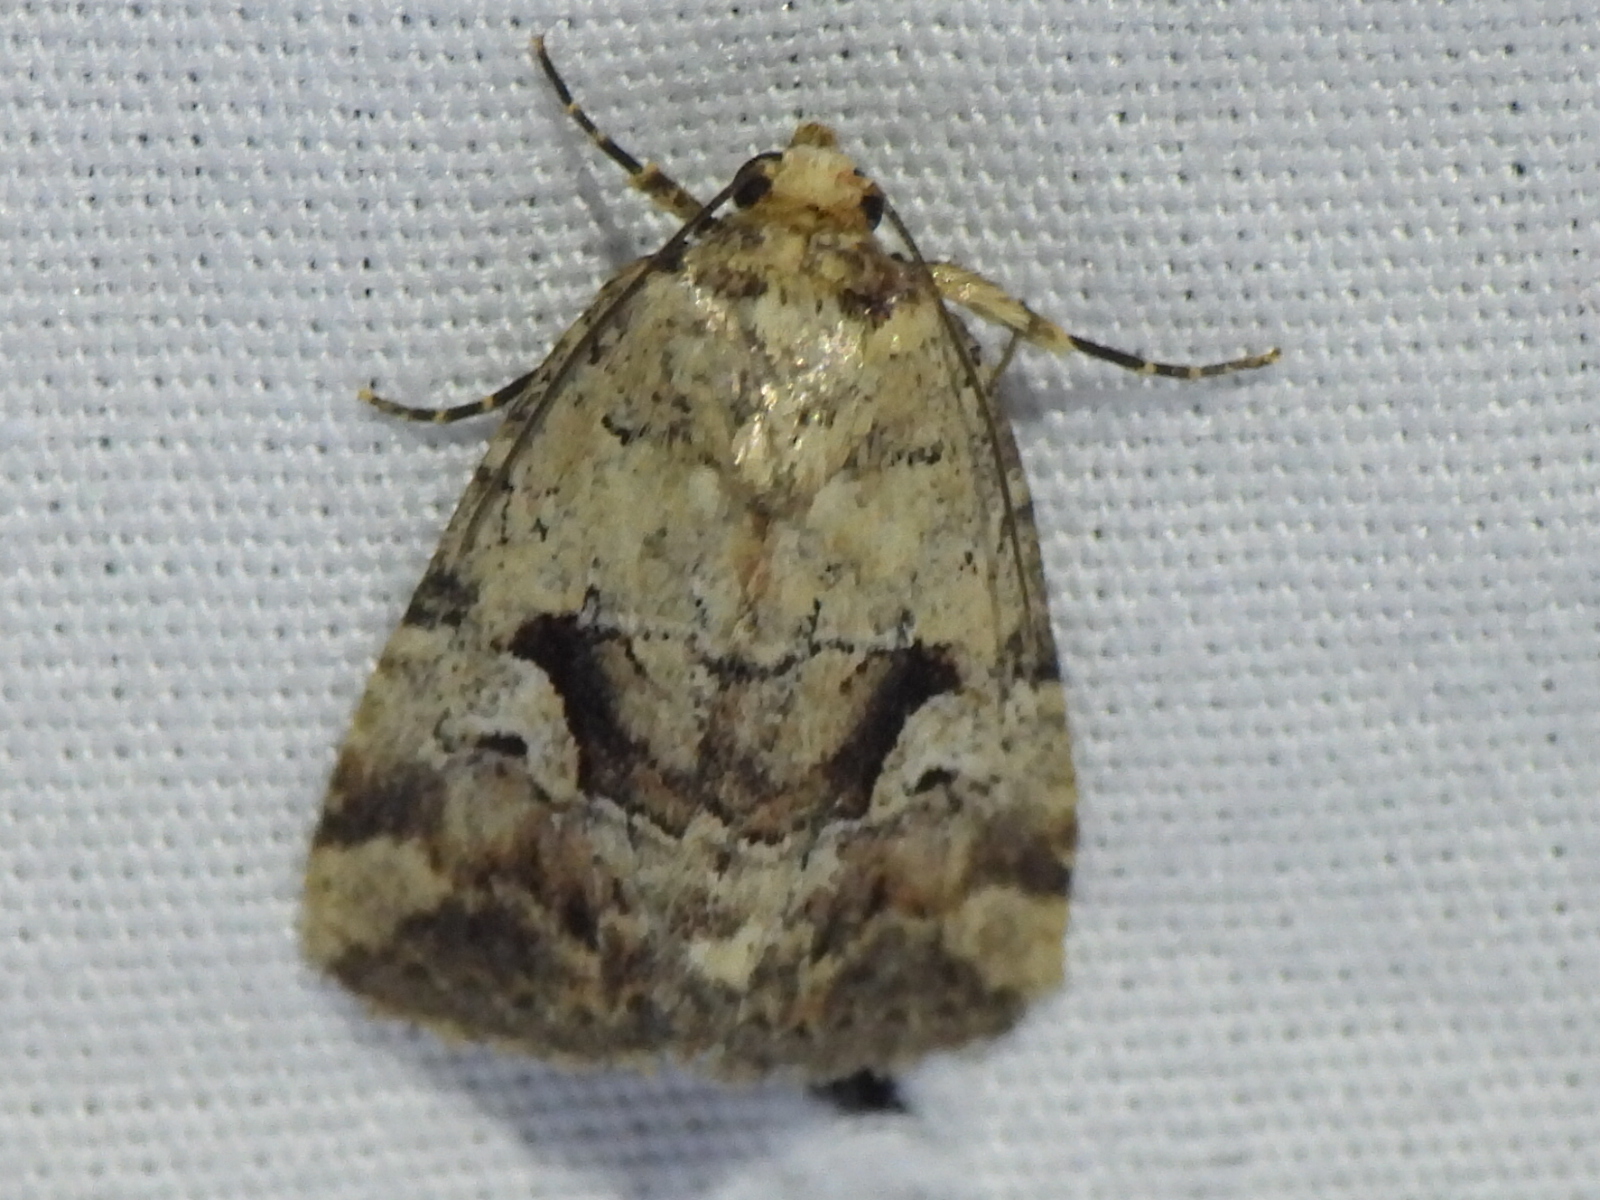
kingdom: Animalia
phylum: Arthropoda
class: Insecta
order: Lepidoptera
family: Noctuidae
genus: Elaphria
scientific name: Elaphria festivoides
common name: Festive midget
